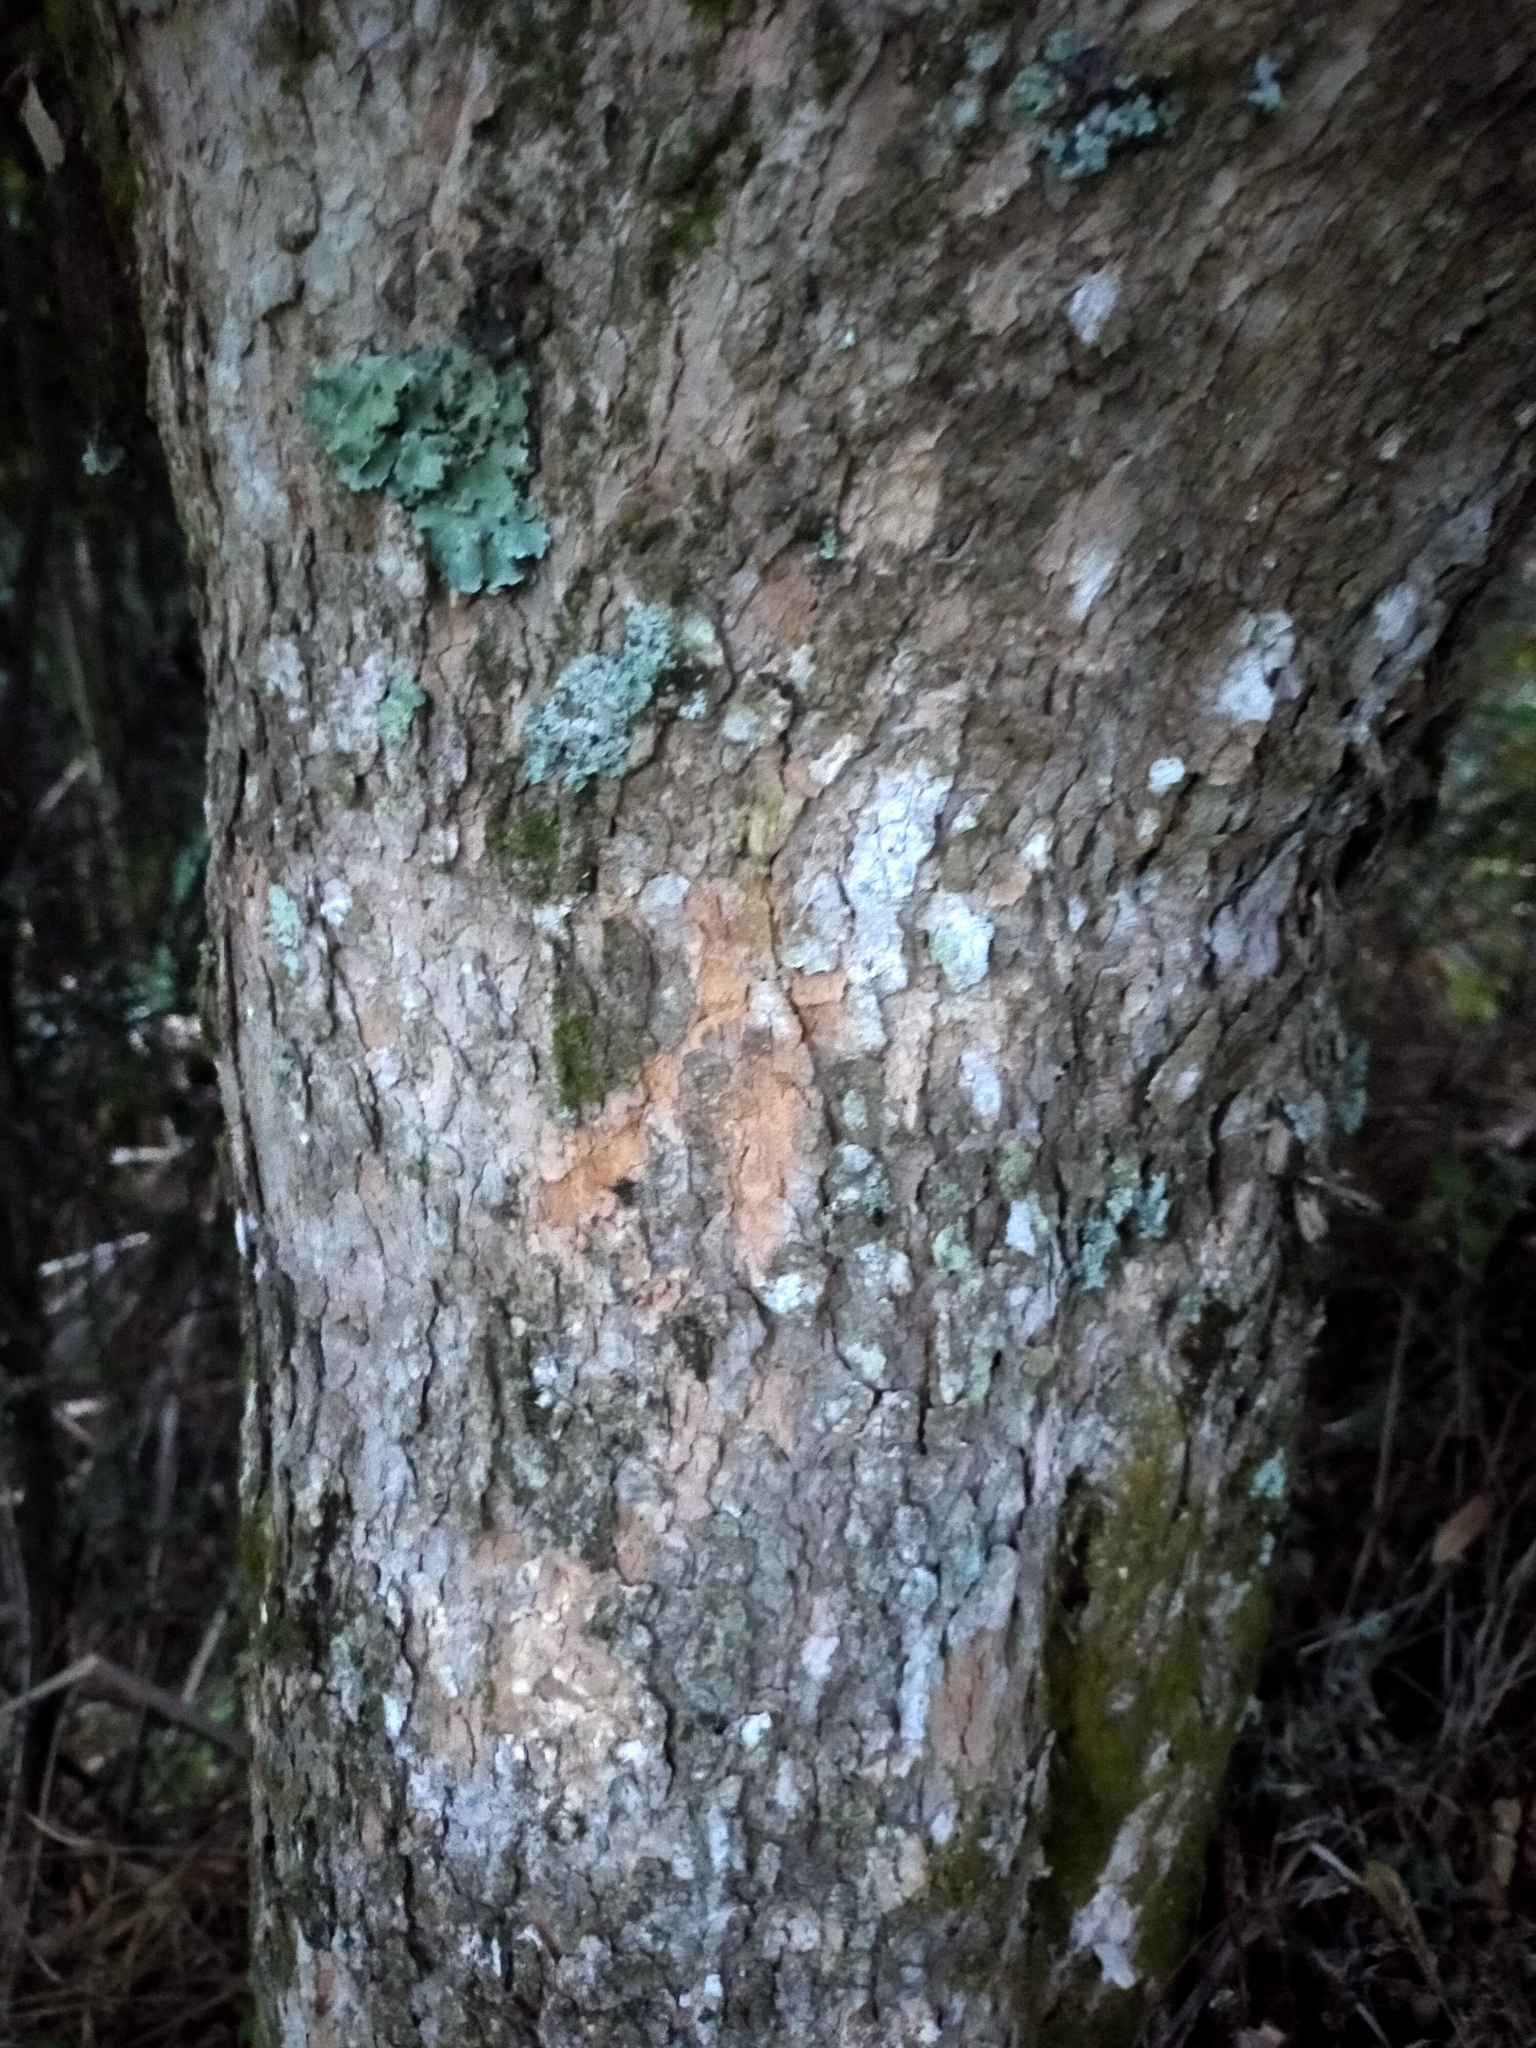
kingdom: Plantae
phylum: Tracheophyta
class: Magnoliopsida
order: Myrtales
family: Myrtaceae
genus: Syzygium
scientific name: Syzygium maire
